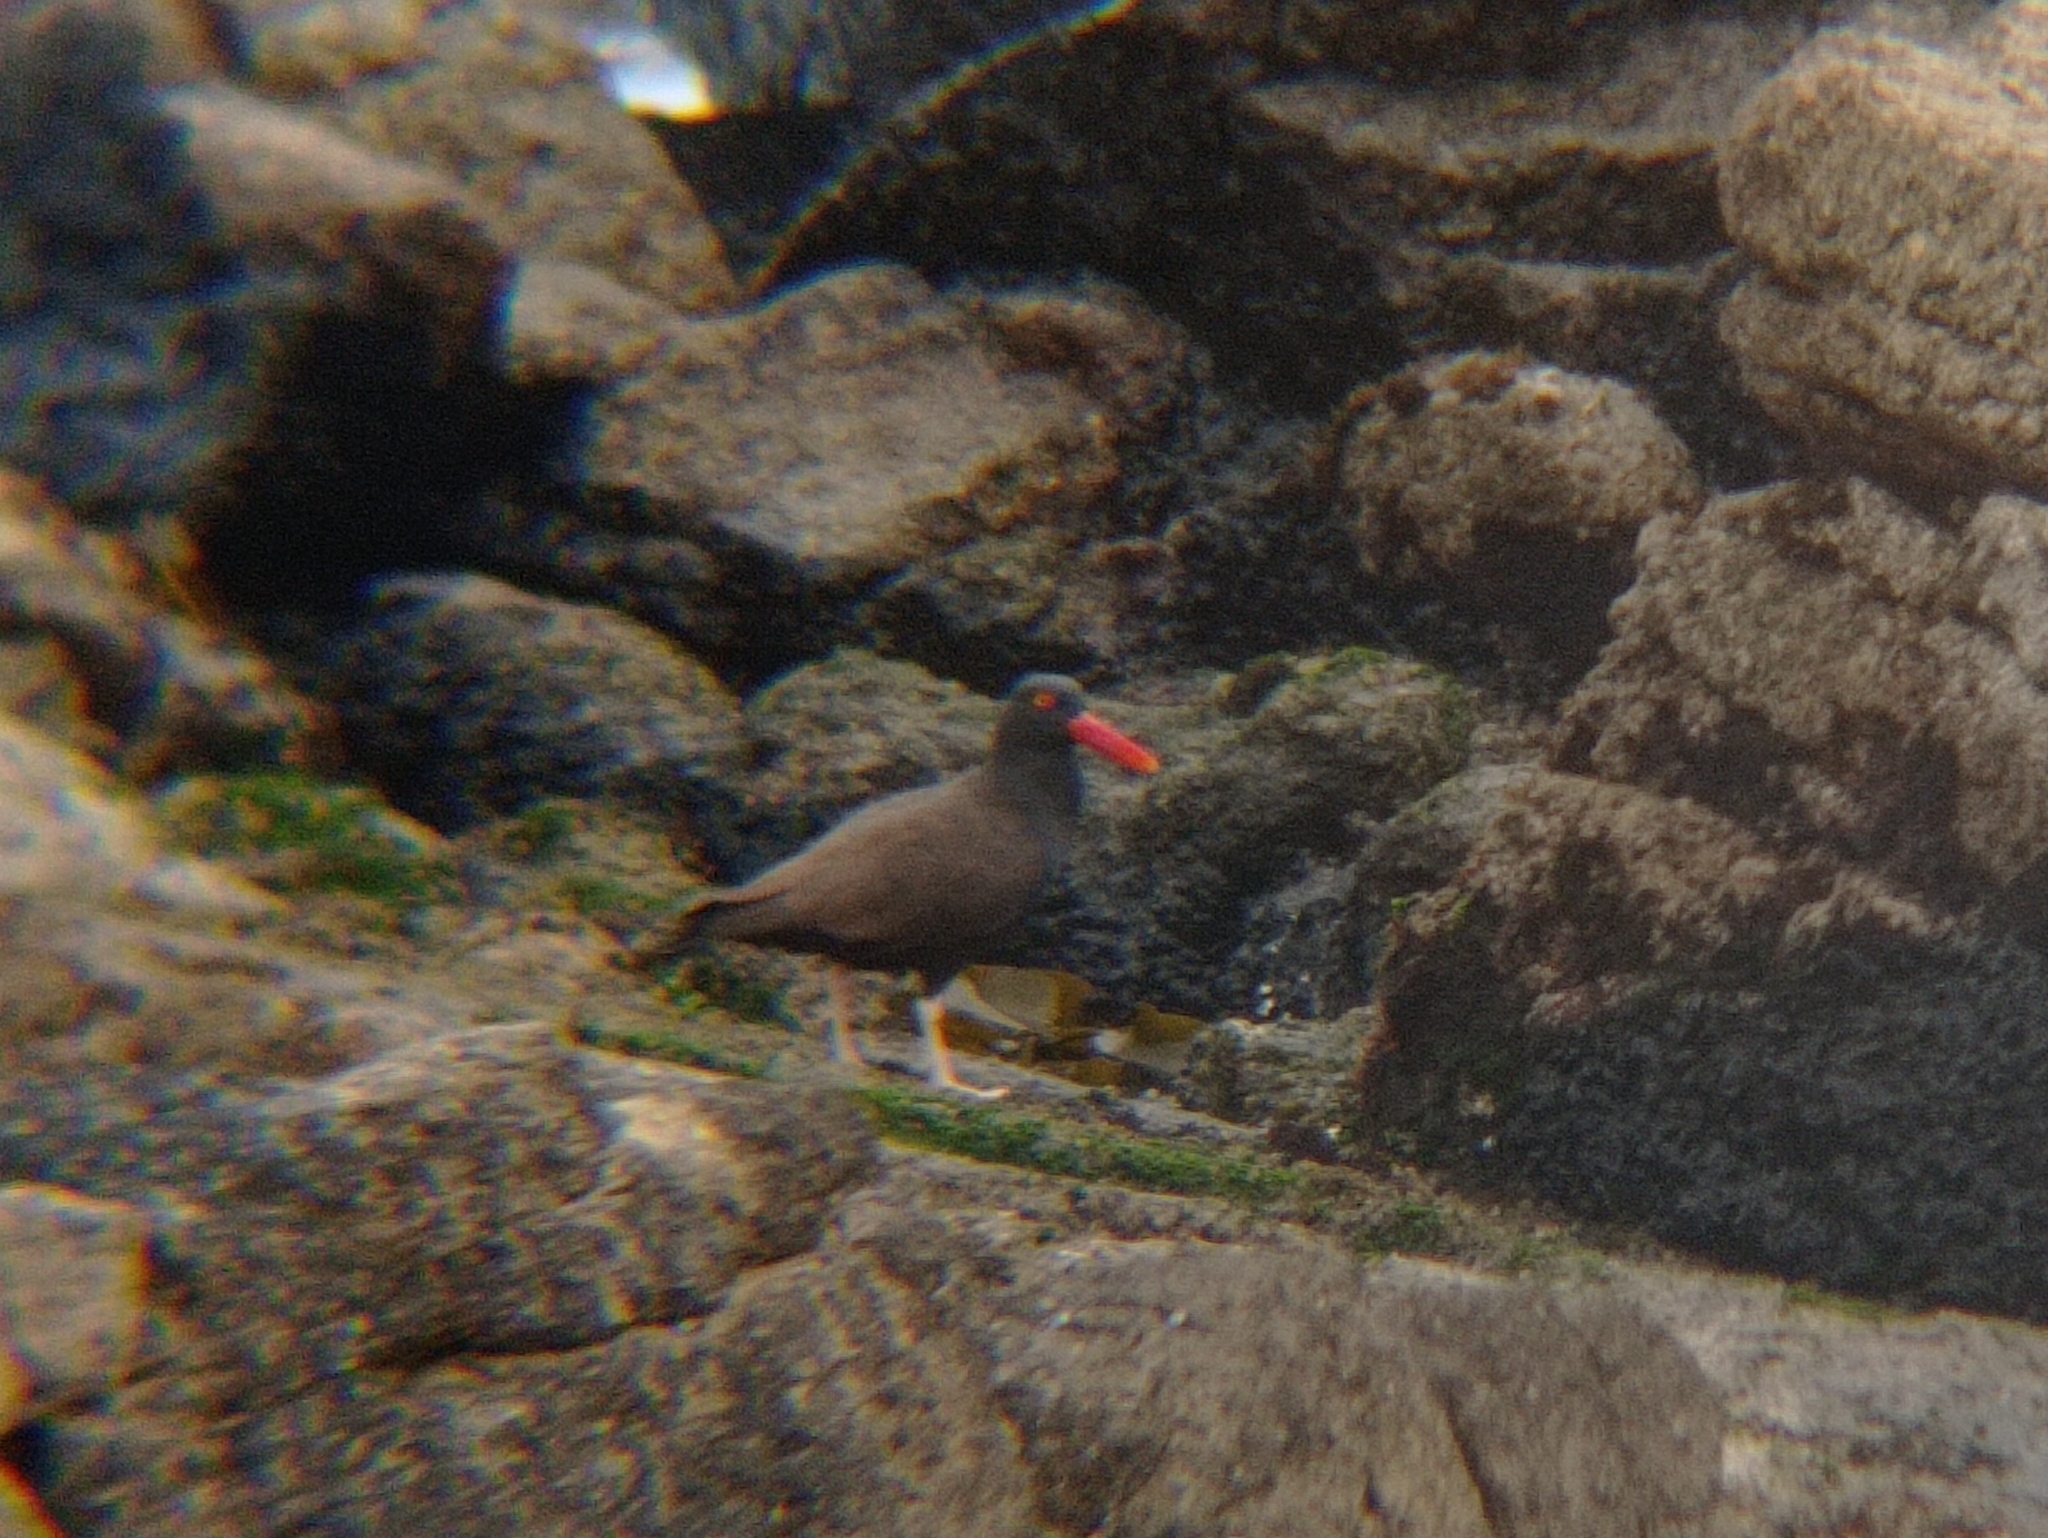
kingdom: Animalia
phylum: Chordata
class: Aves
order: Charadriiformes
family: Haematopodidae
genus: Haematopus
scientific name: Haematopus ater
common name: Blackish oystercatcher
